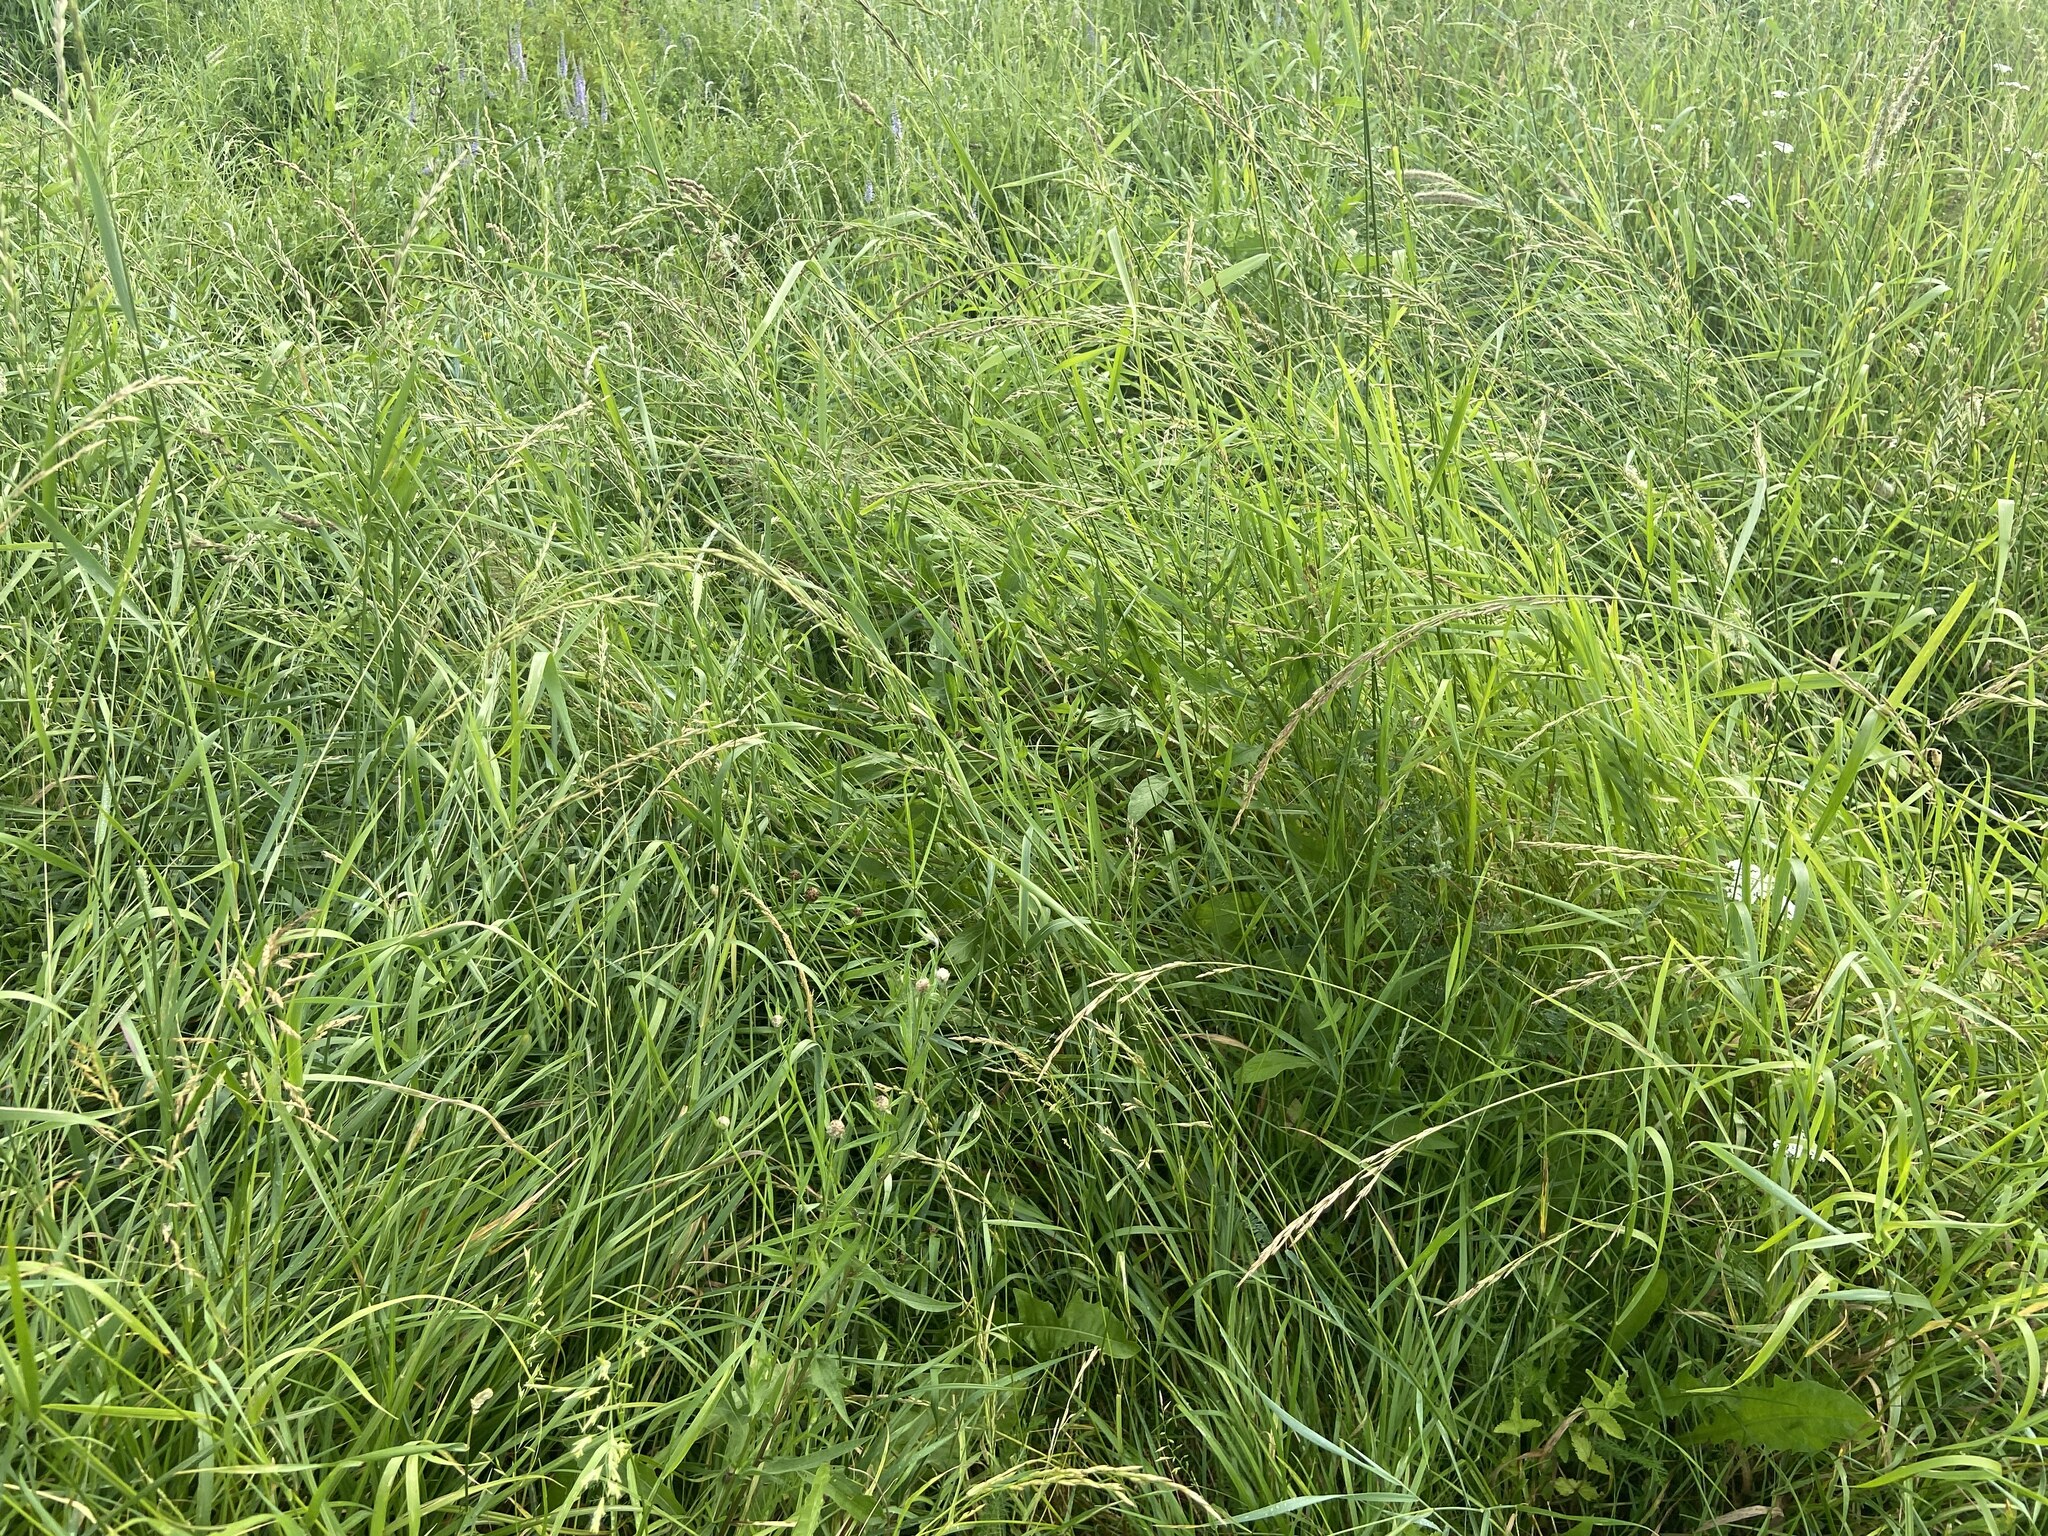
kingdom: Plantae
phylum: Tracheophyta
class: Liliopsida
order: Poales
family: Poaceae
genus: Lolium
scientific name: Lolium pratense
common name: Dover grass
